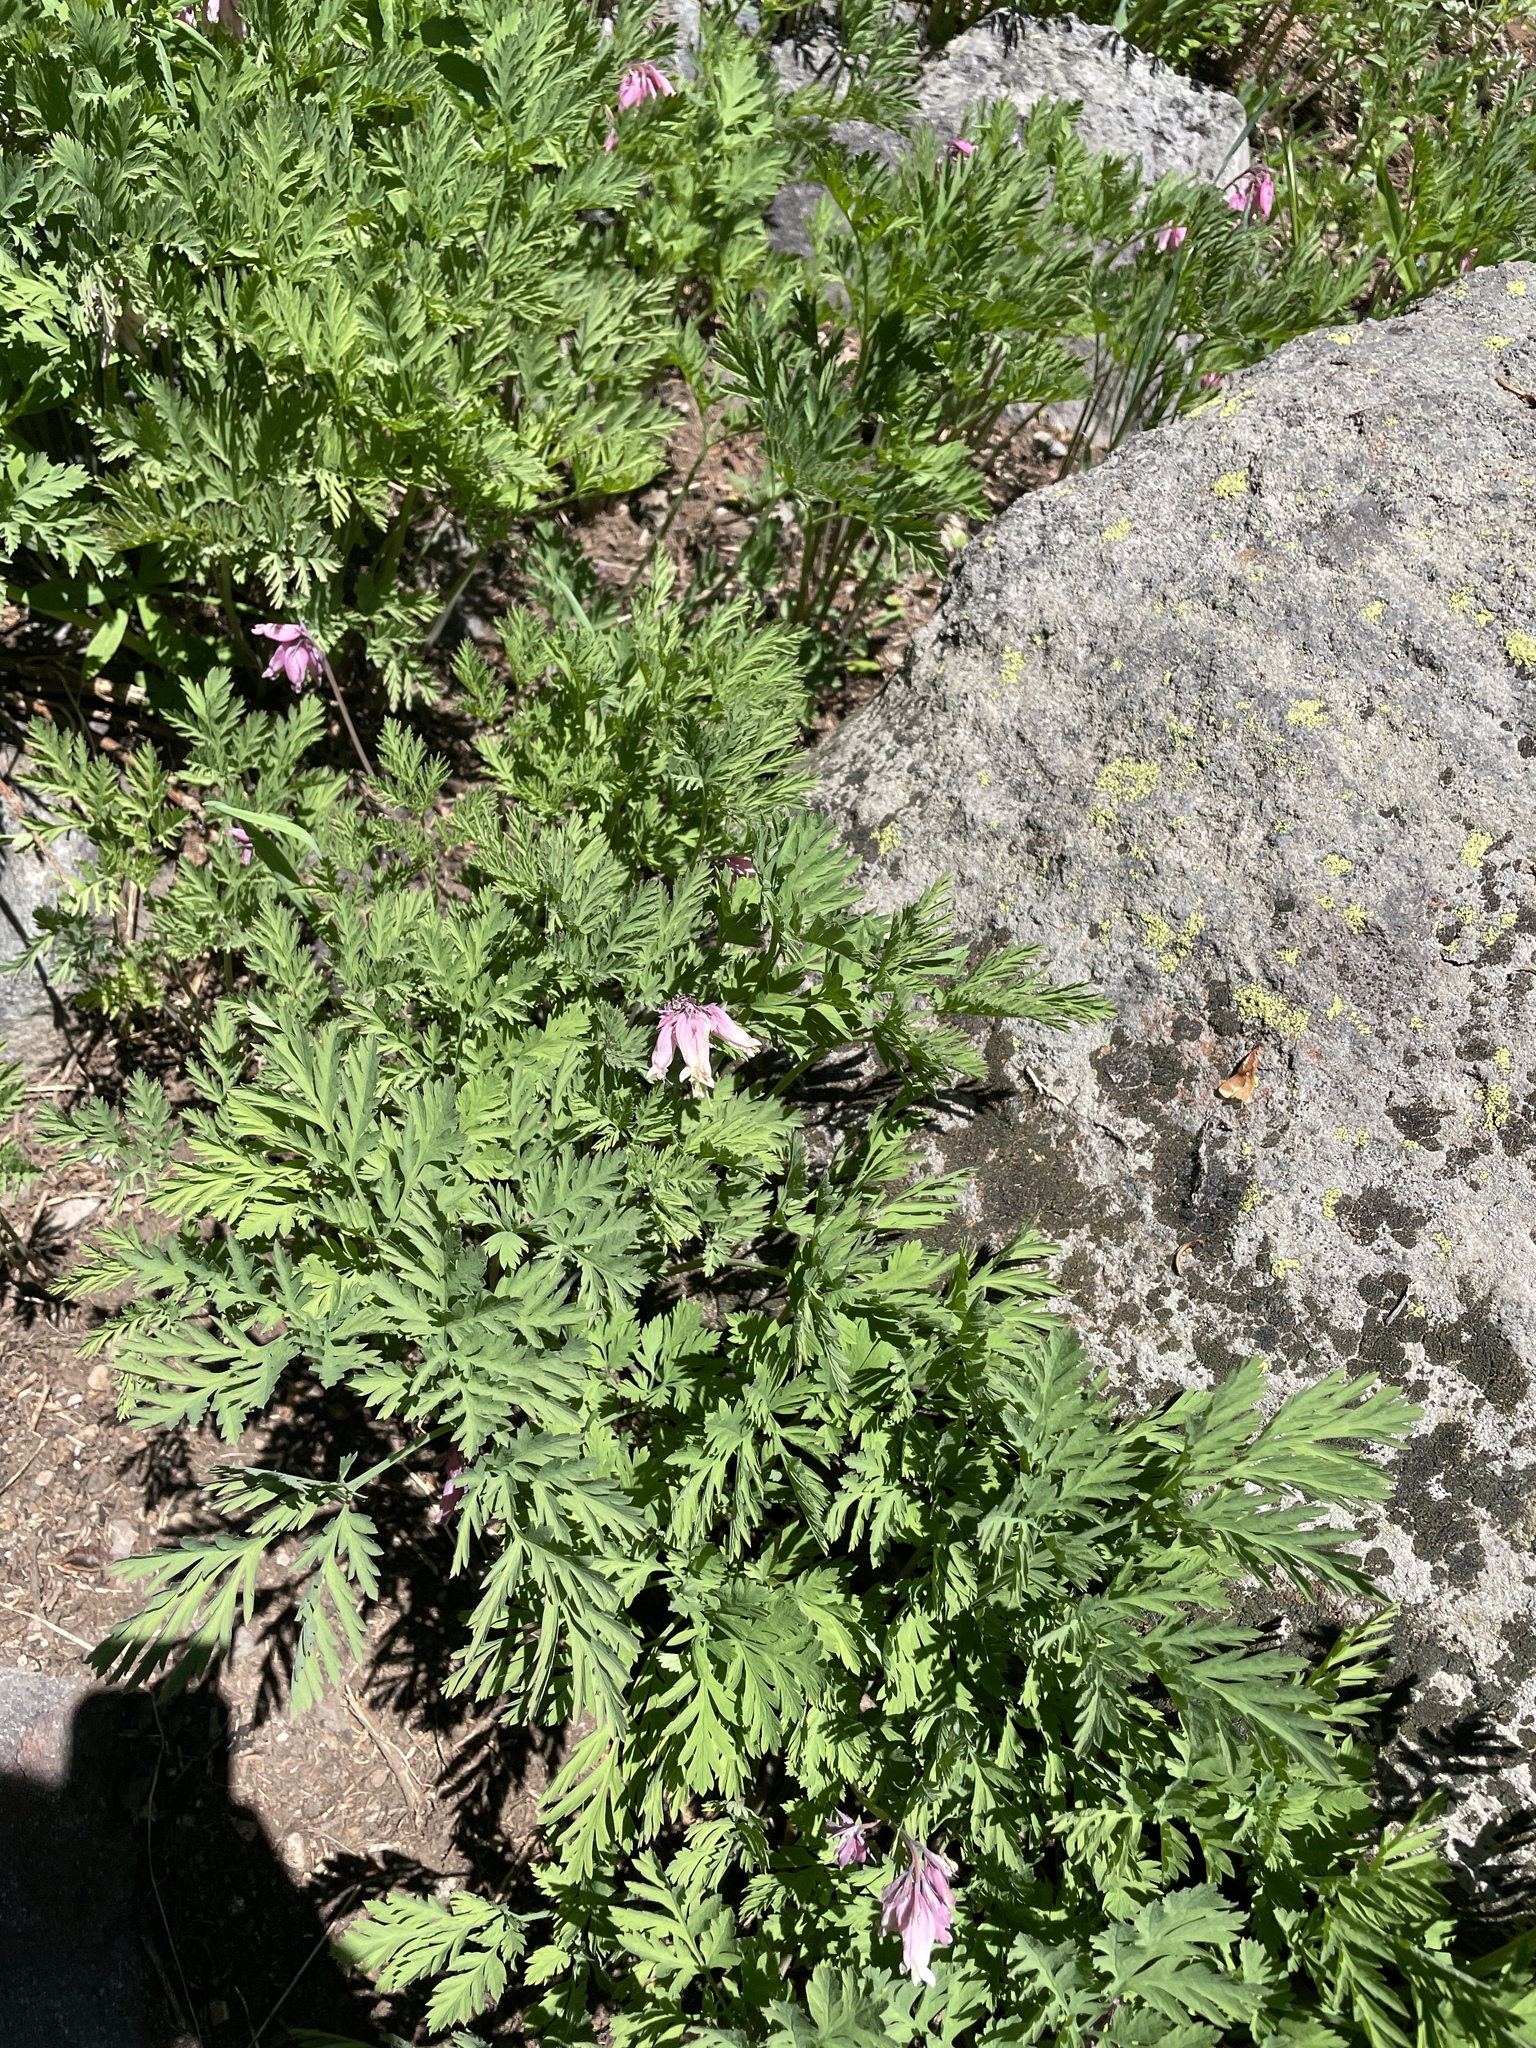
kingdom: Plantae
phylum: Tracheophyta
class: Magnoliopsida
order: Ranunculales
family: Papaveraceae
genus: Dicentra
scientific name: Dicentra formosa
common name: Bleeding-heart
